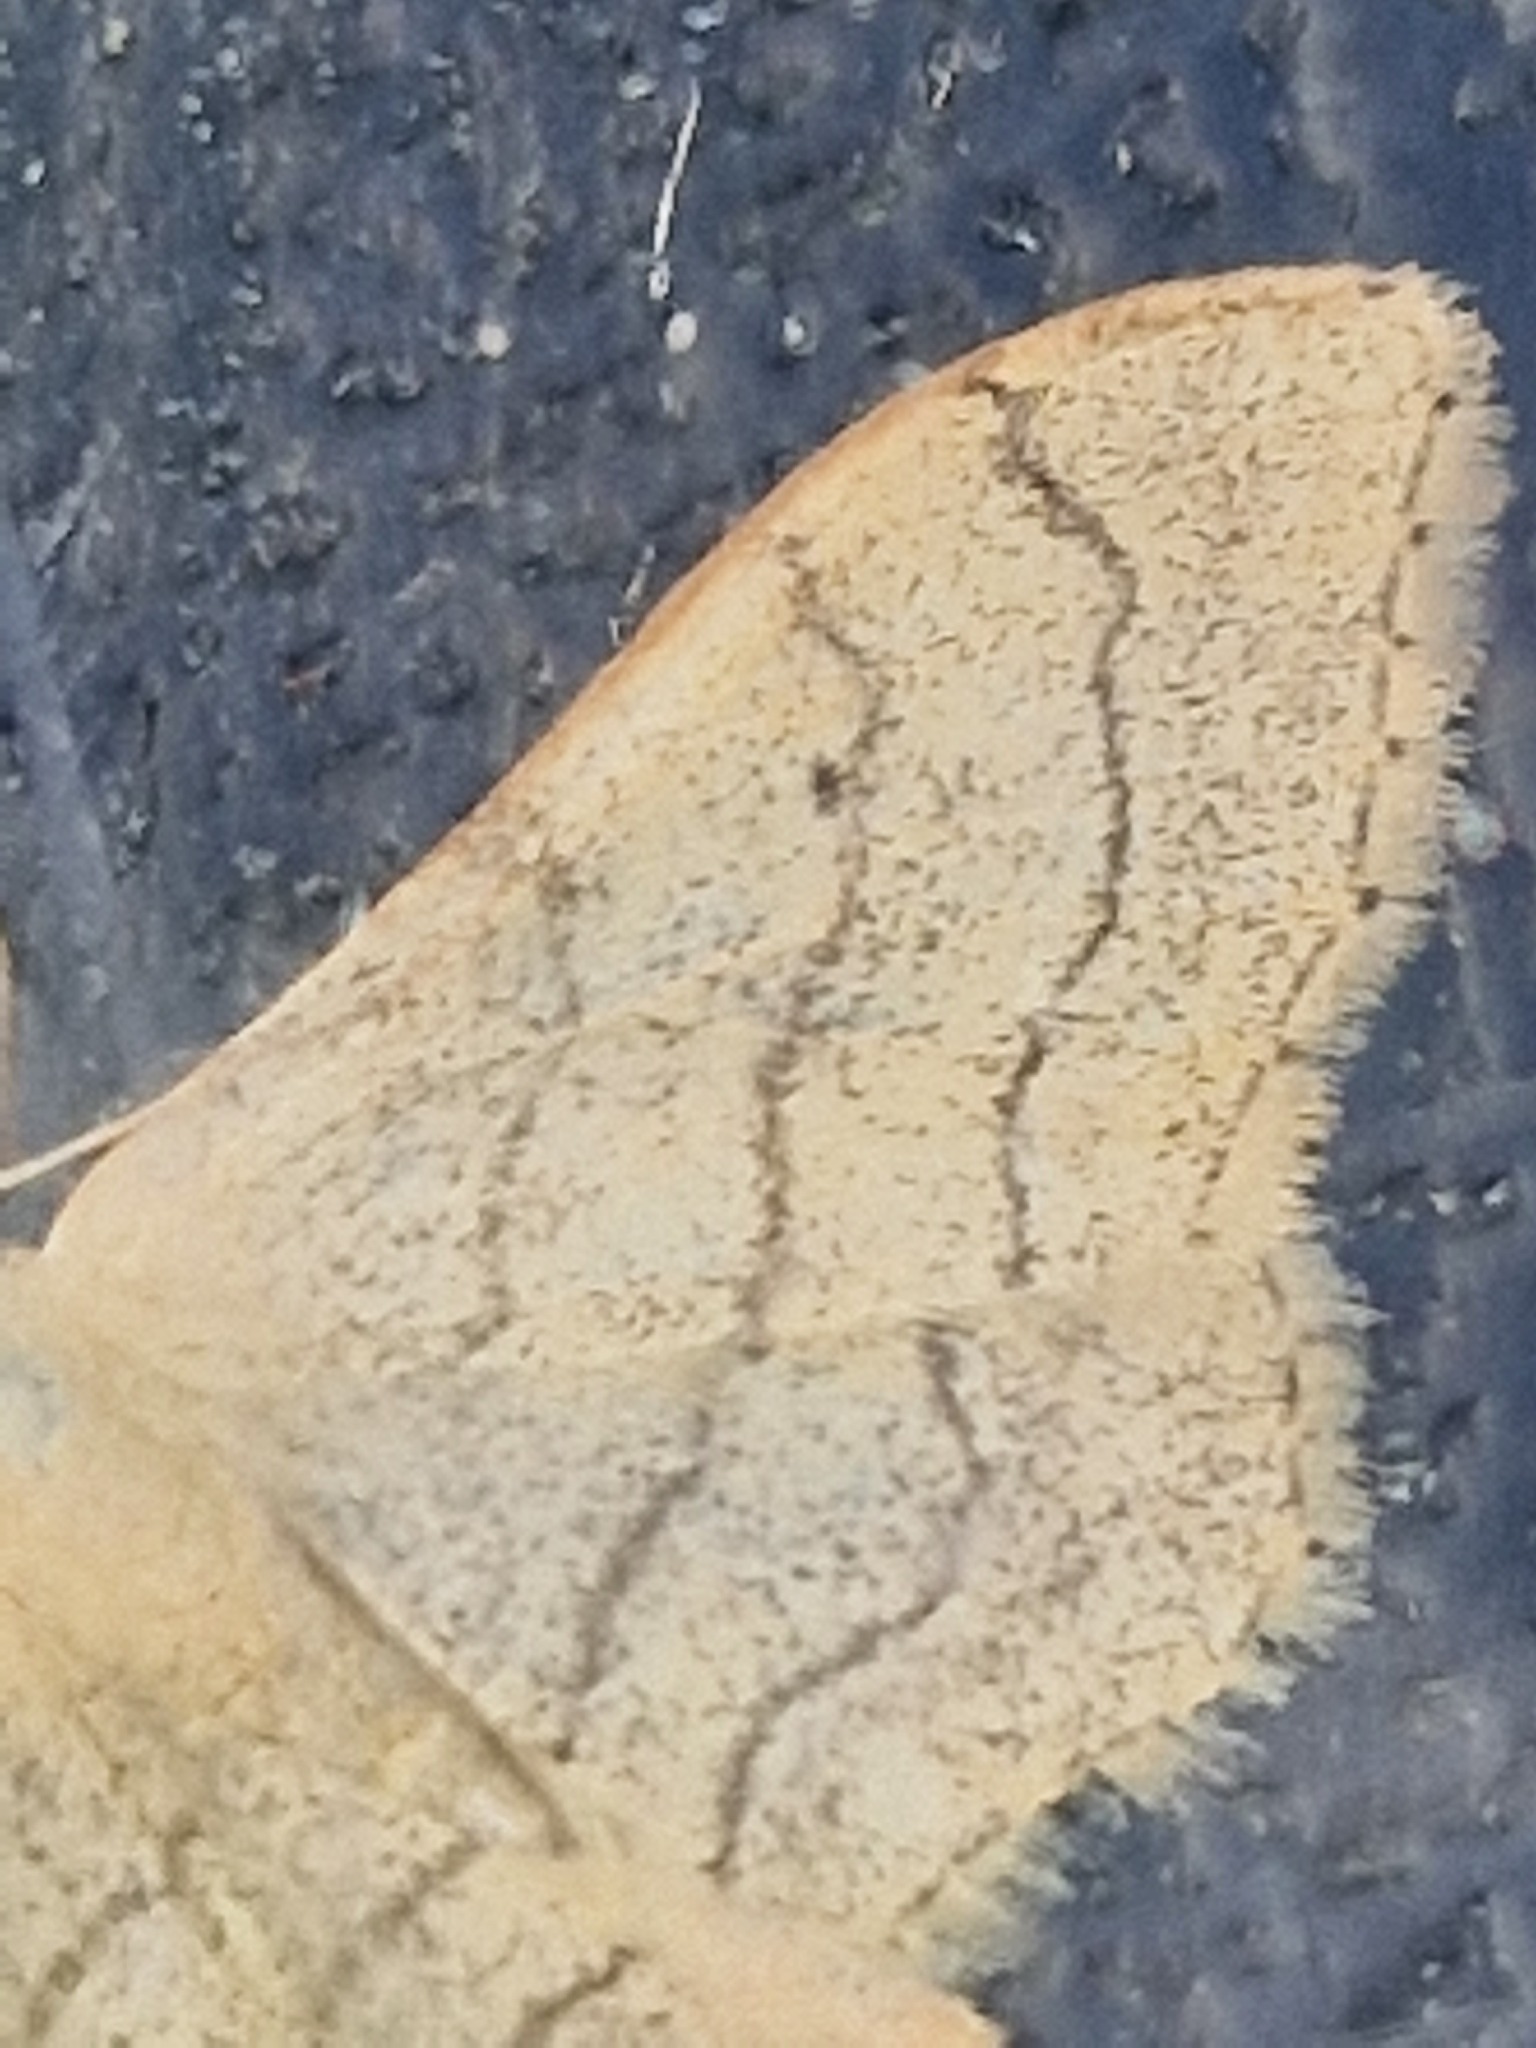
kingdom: Animalia
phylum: Arthropoda
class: Insecta
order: Lepidoptera
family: Geometridae
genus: Idaea
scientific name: Idaea aversata
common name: Riband wave
